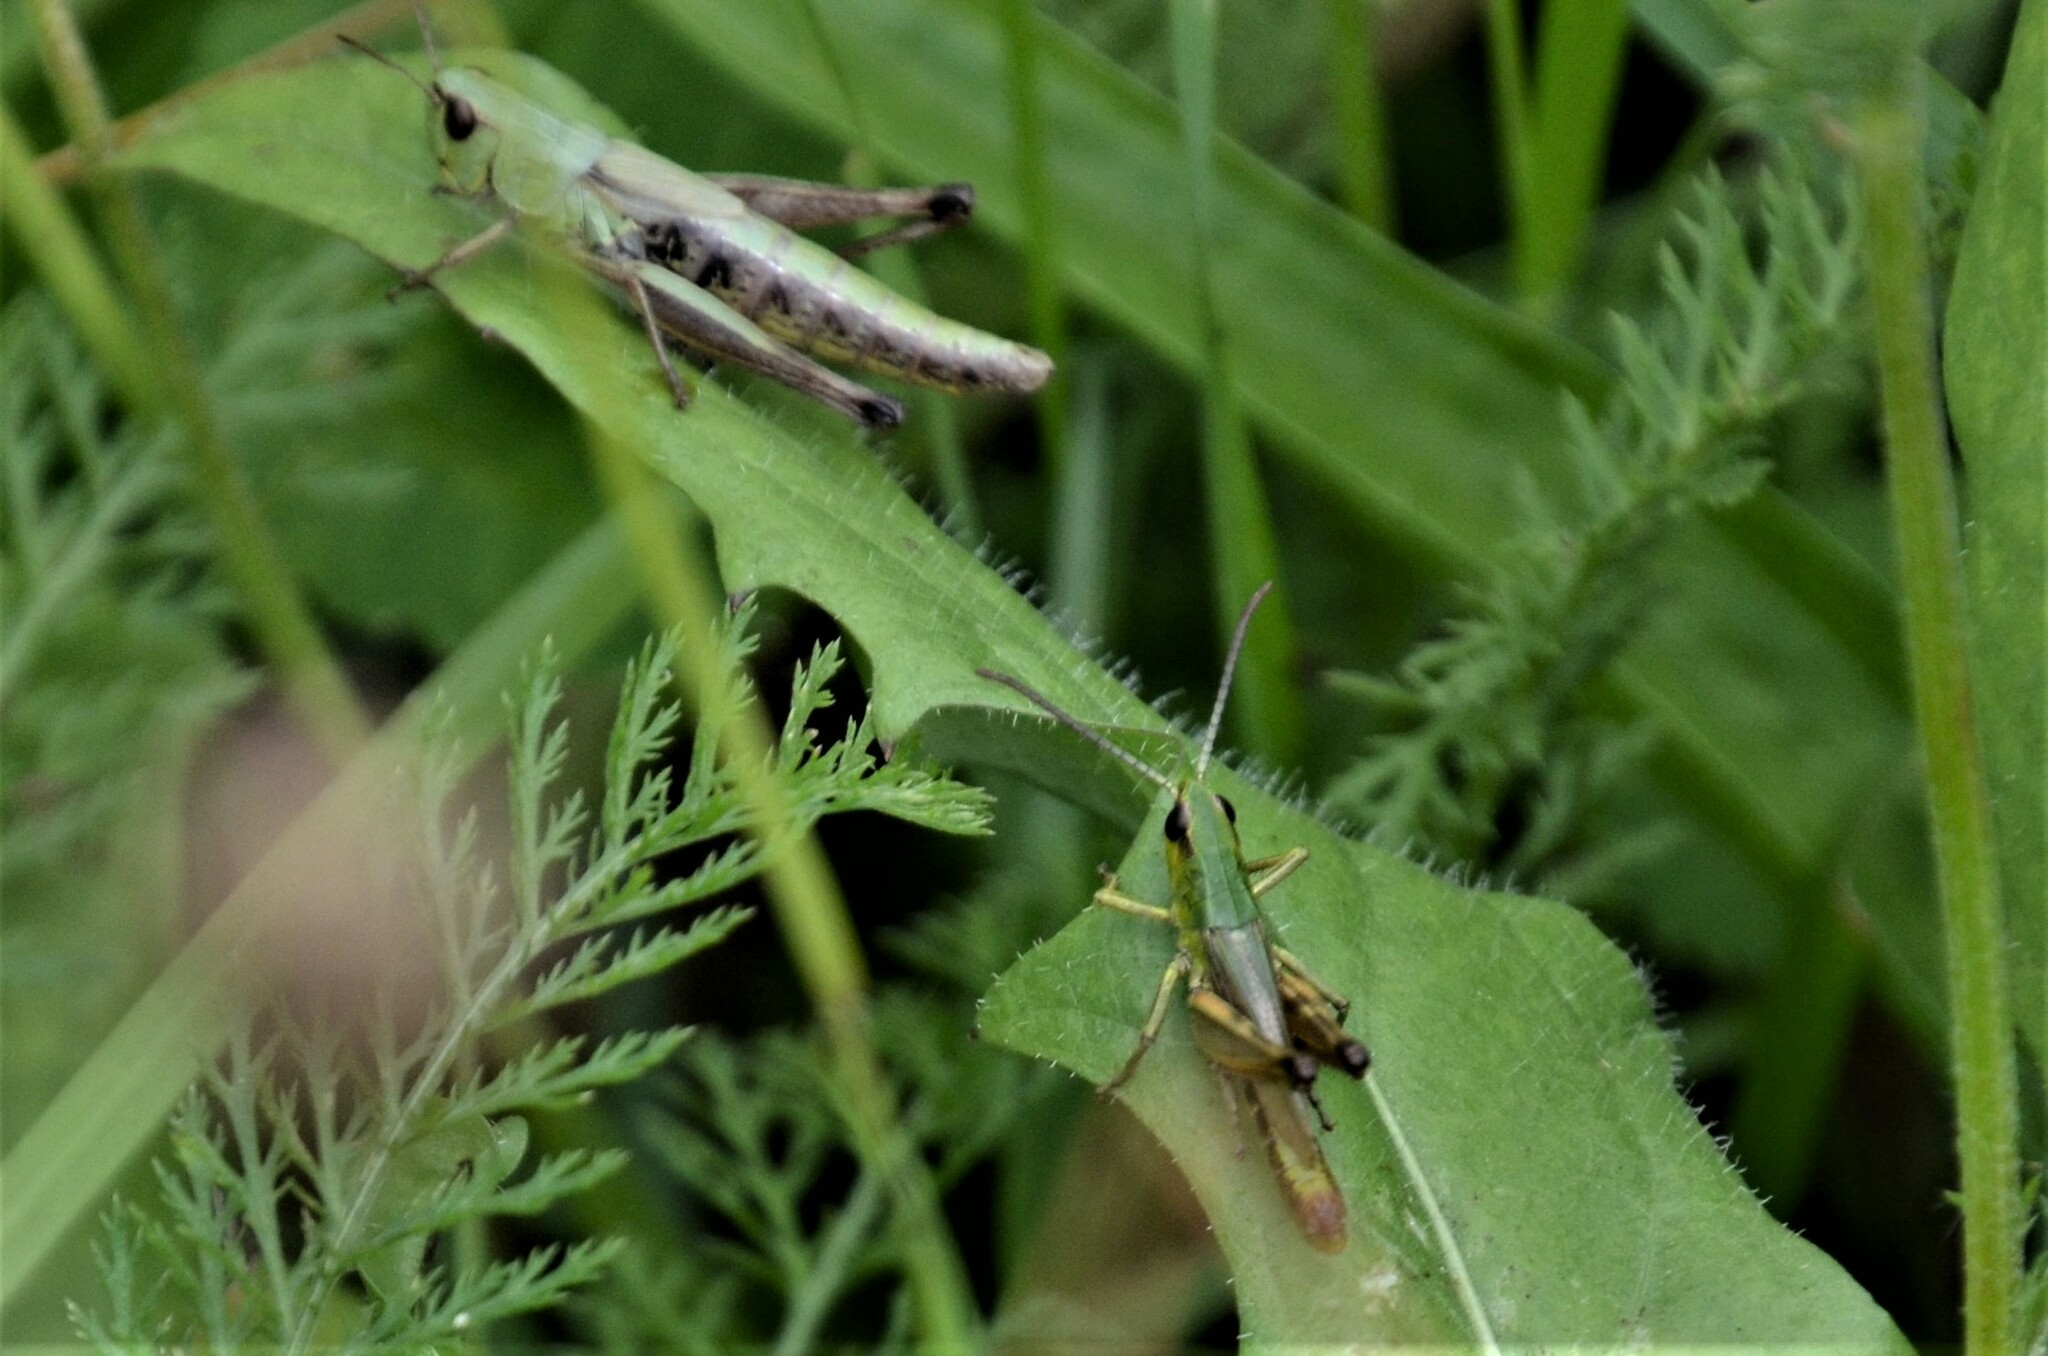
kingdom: Animalia
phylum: Arthropoda
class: Insecta
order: Orthoptera
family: Acrididae
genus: Pseudochorthippus
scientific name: Pseudochorthippus parallelus
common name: Meadow grasshopper
